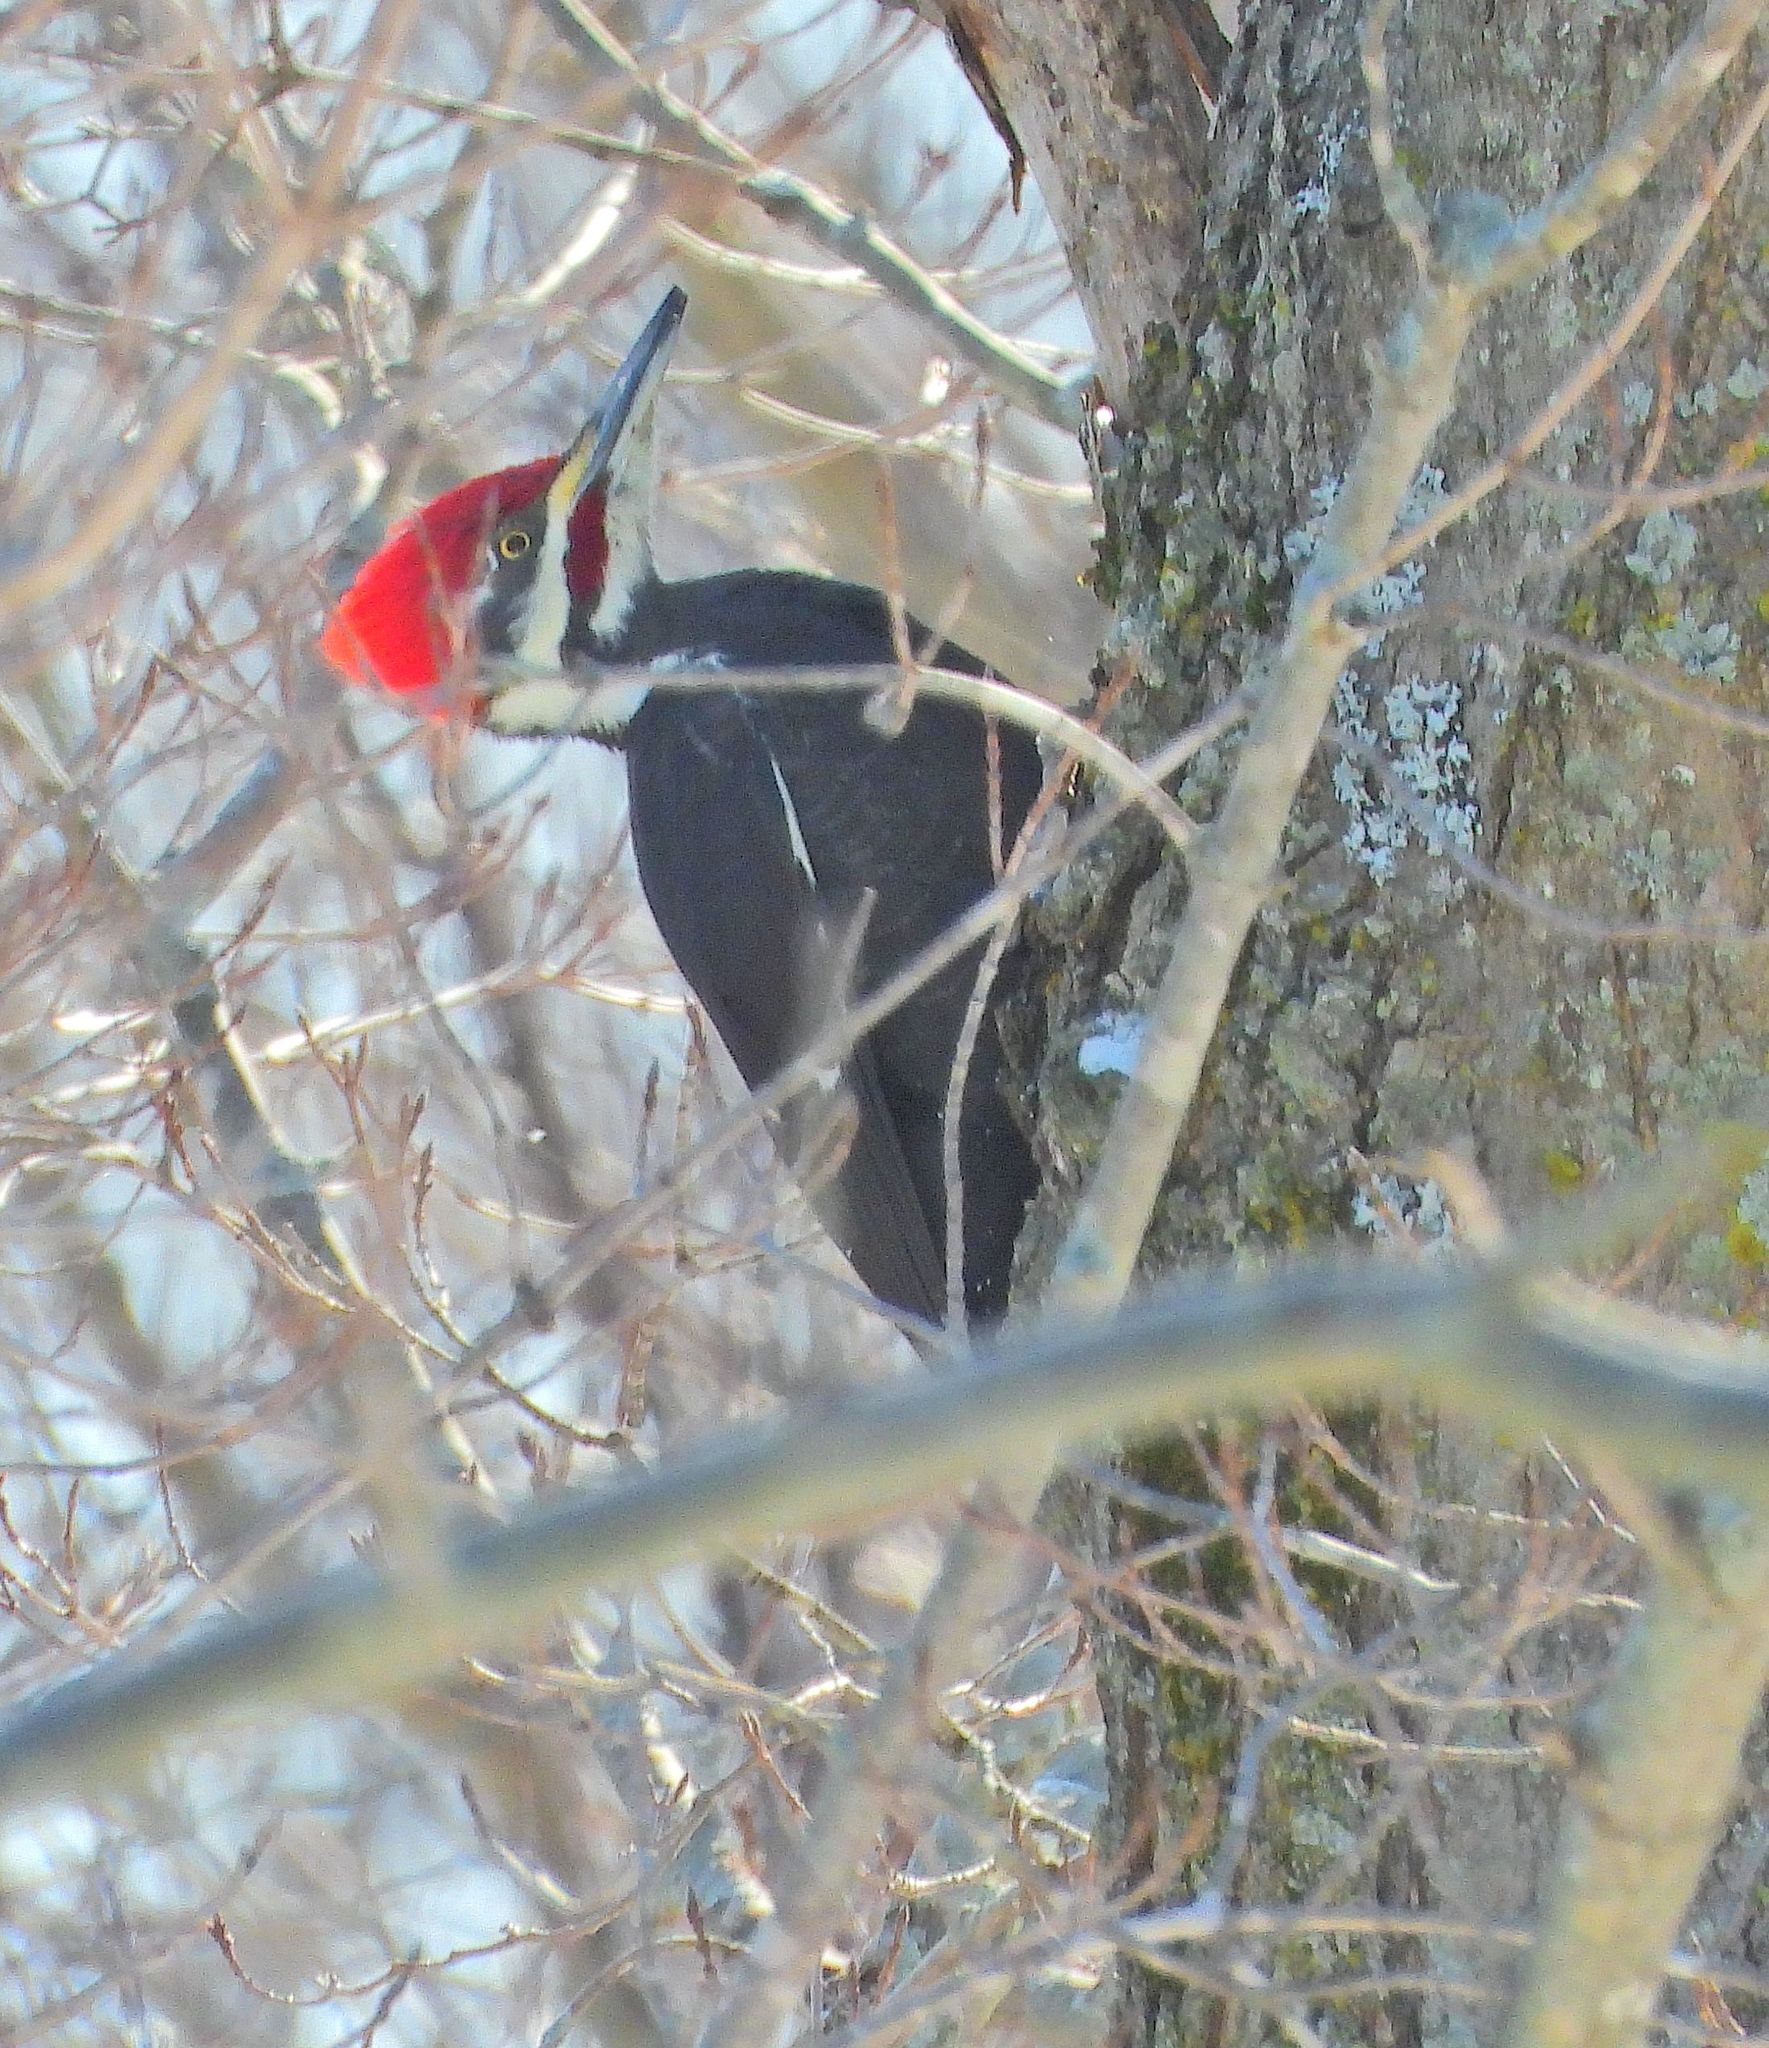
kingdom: Animalia
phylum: Chordata
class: Aves
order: Piciformes
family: Picidae
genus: Dryocopus
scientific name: Dryocopus pileatus
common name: Pileated woodpecker
